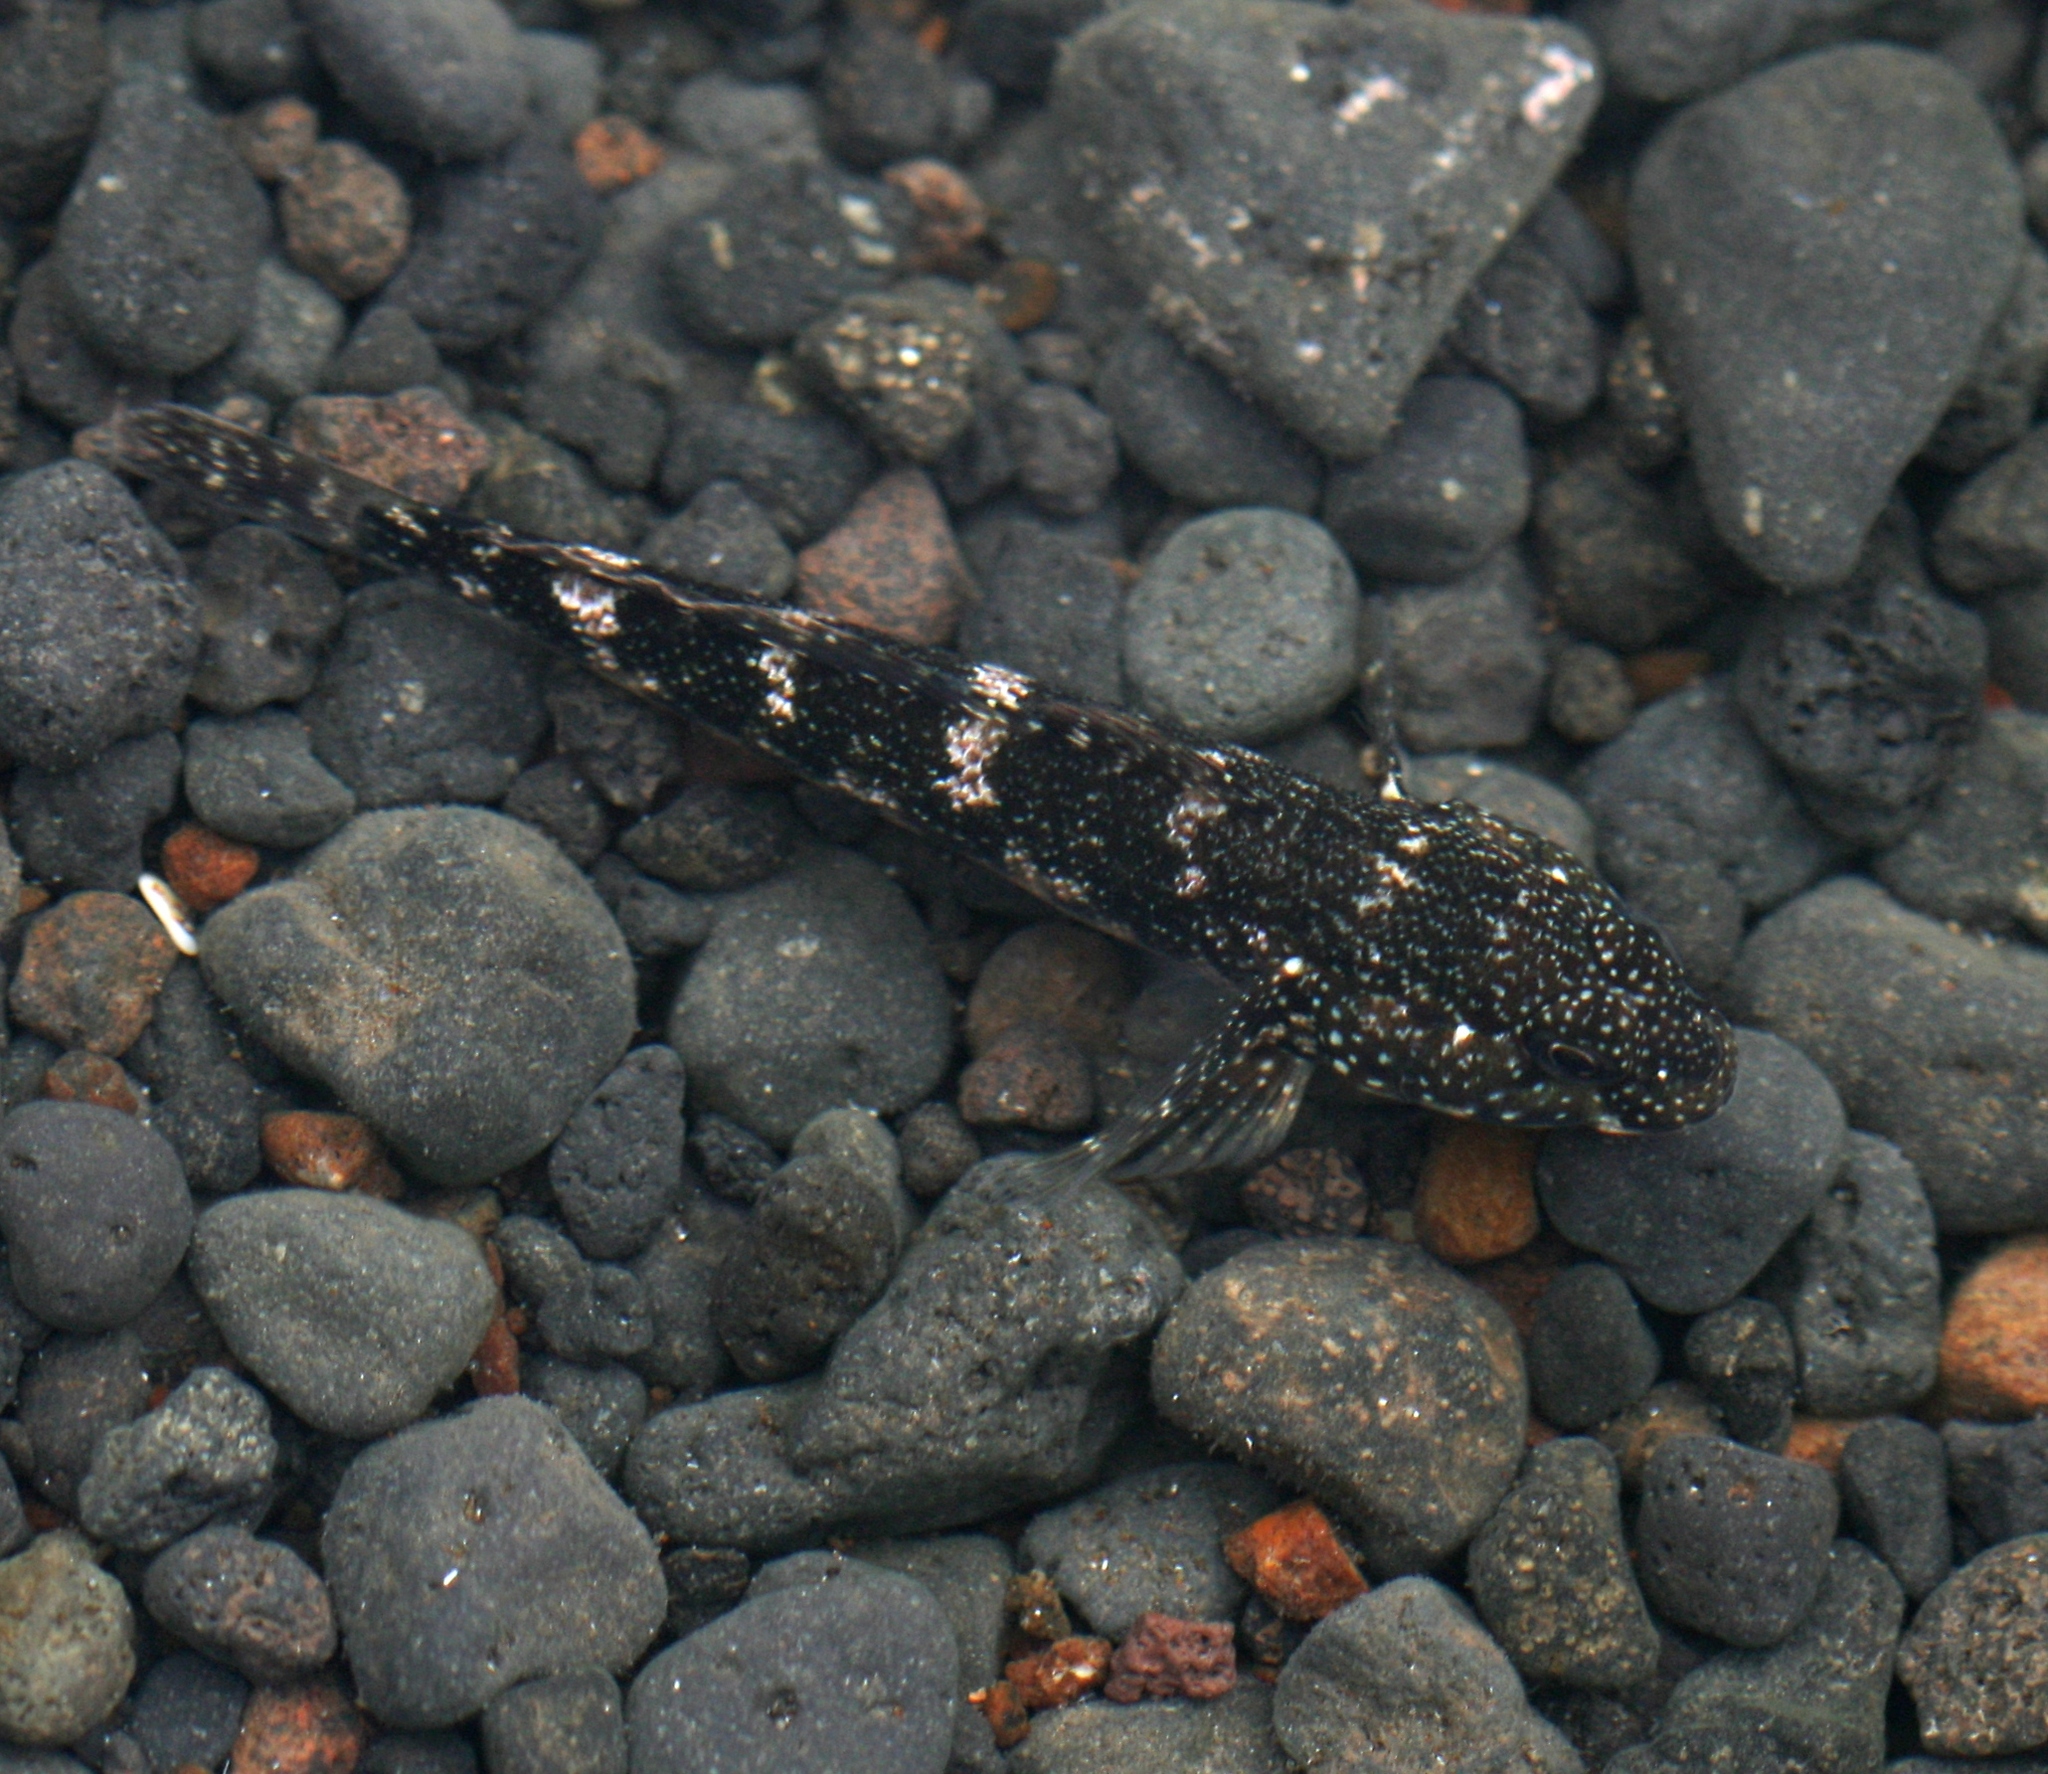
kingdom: Animalia
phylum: Chordata
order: Perciformes
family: Gobiidae
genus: Mauligobius
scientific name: Mauligobius maderensis
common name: Rock goby
